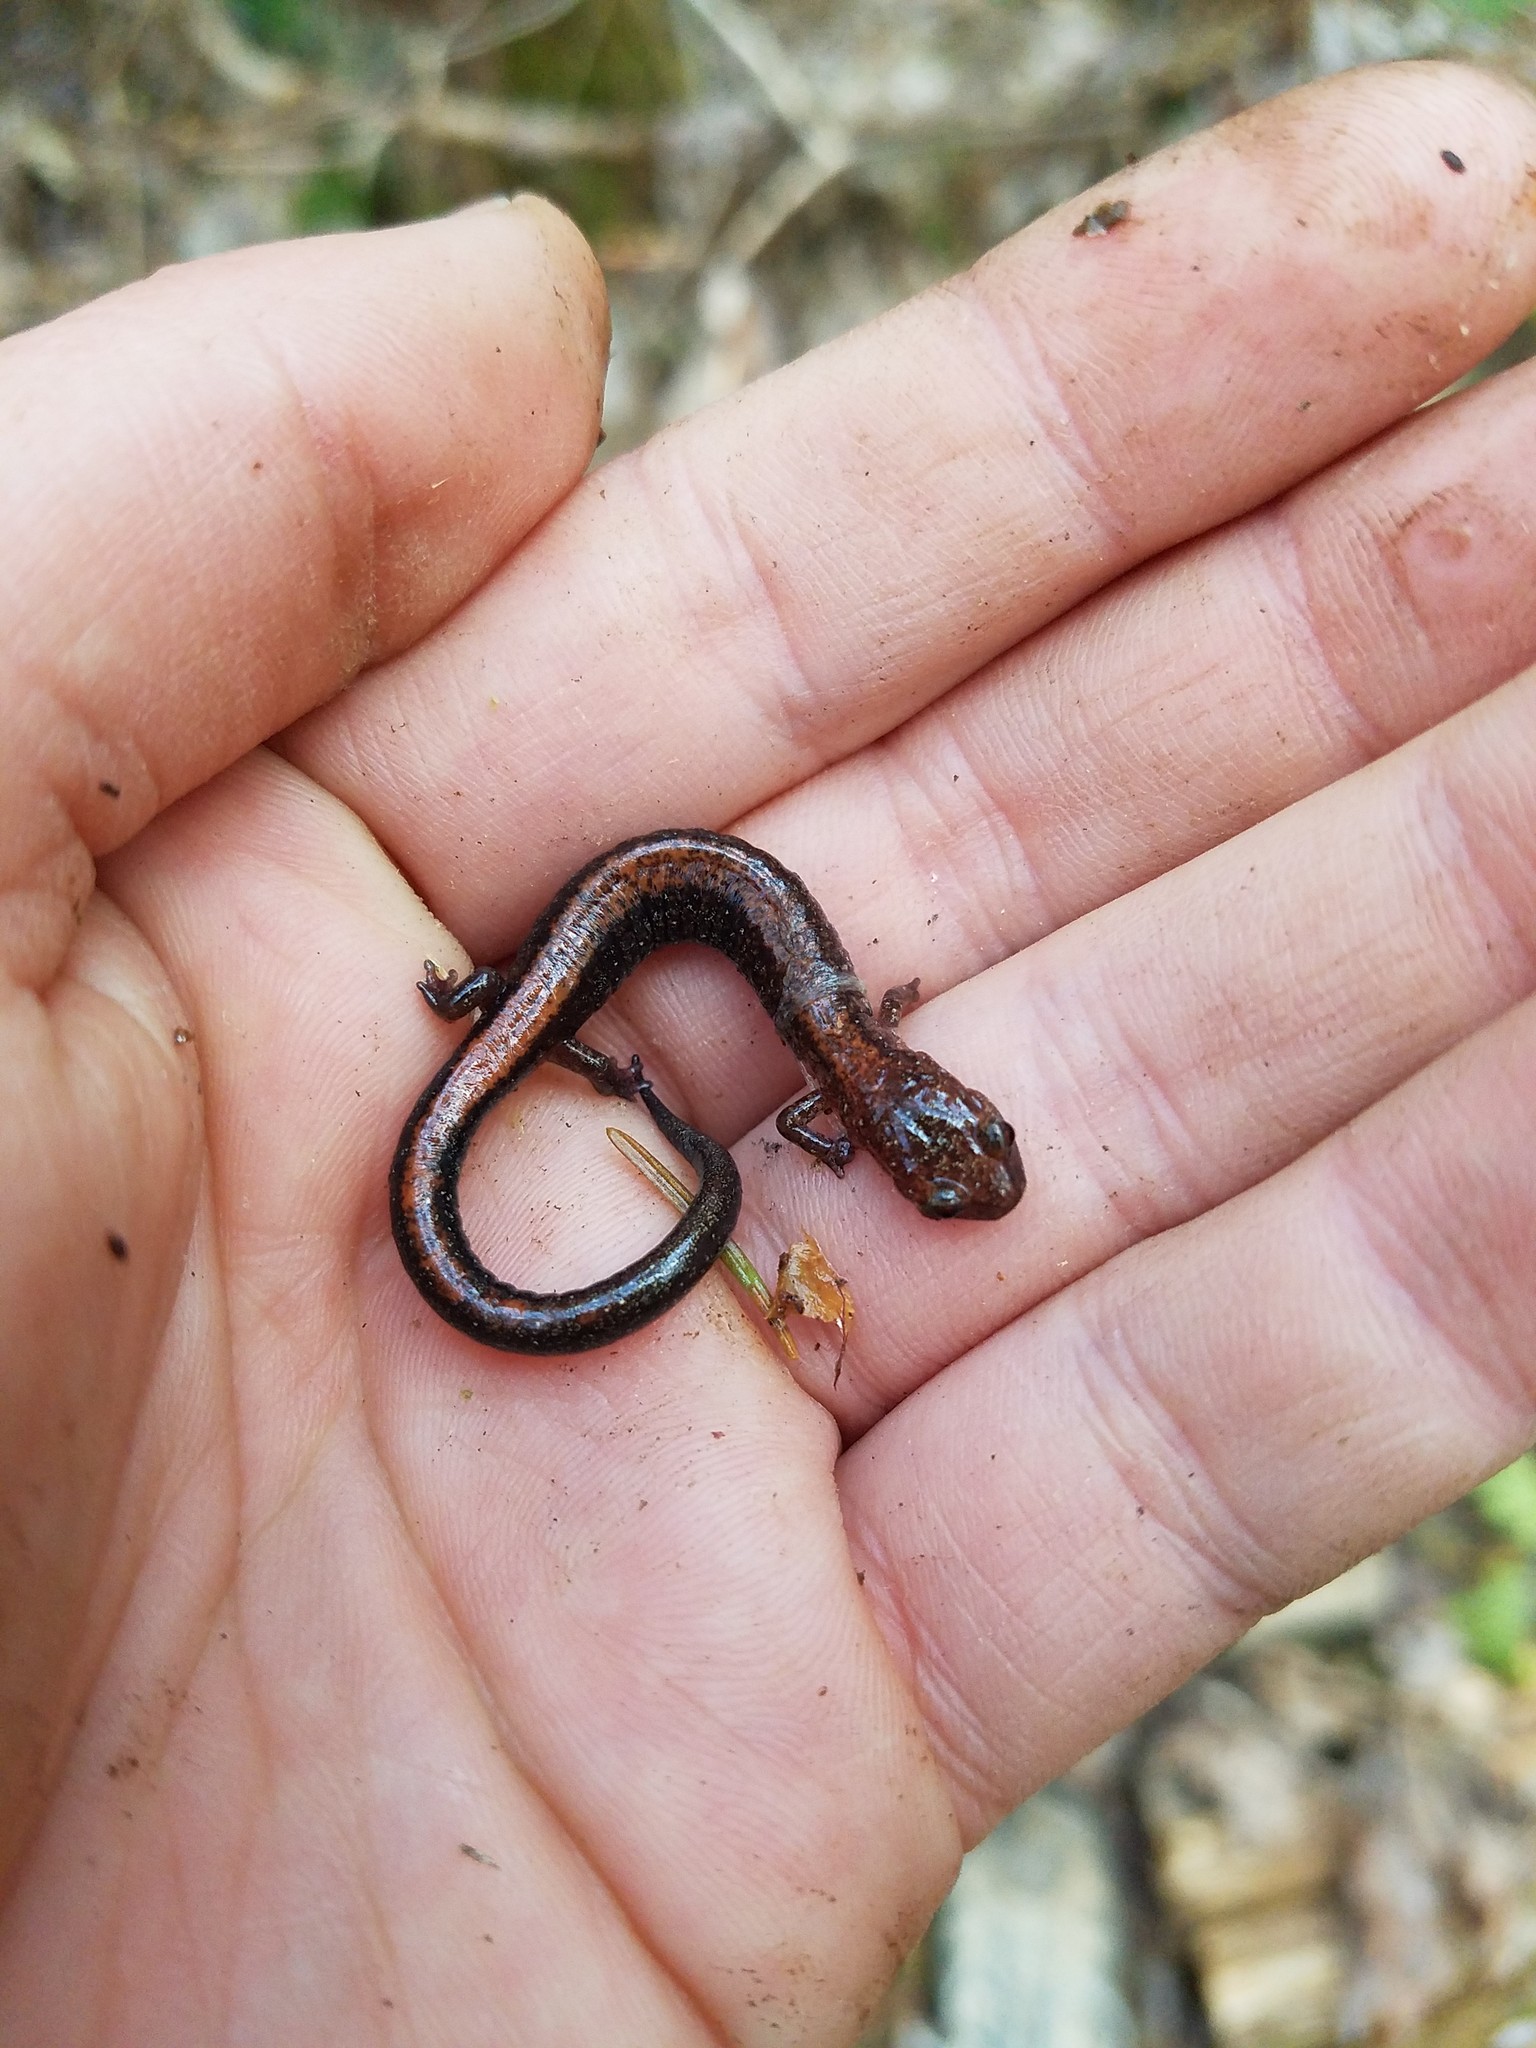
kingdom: Animalia
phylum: Chordata
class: Amphibia
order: Caudata
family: Plethodontidae
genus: Plethodon
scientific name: Plethodon cinereus
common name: Redback salamander
